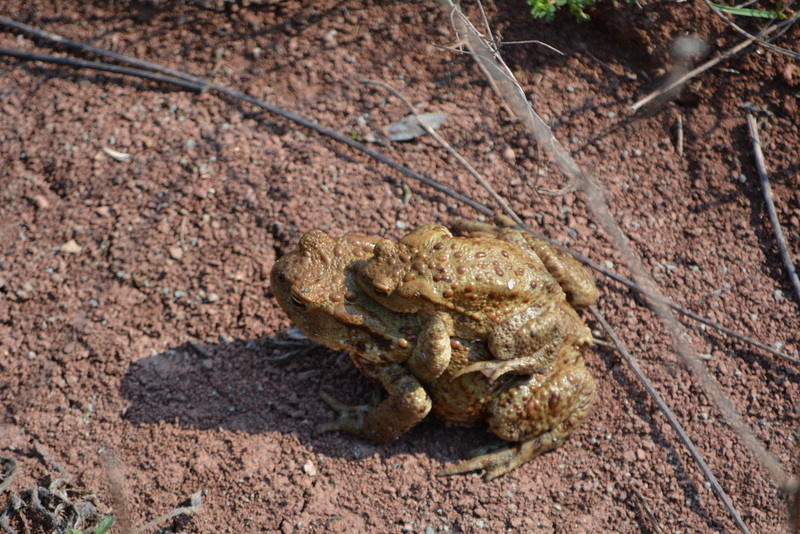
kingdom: Animalia
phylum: Chordata
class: Amphibia
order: Anura
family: Bufonidae
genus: Bufo
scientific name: Bufo bufo
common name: Common toad
